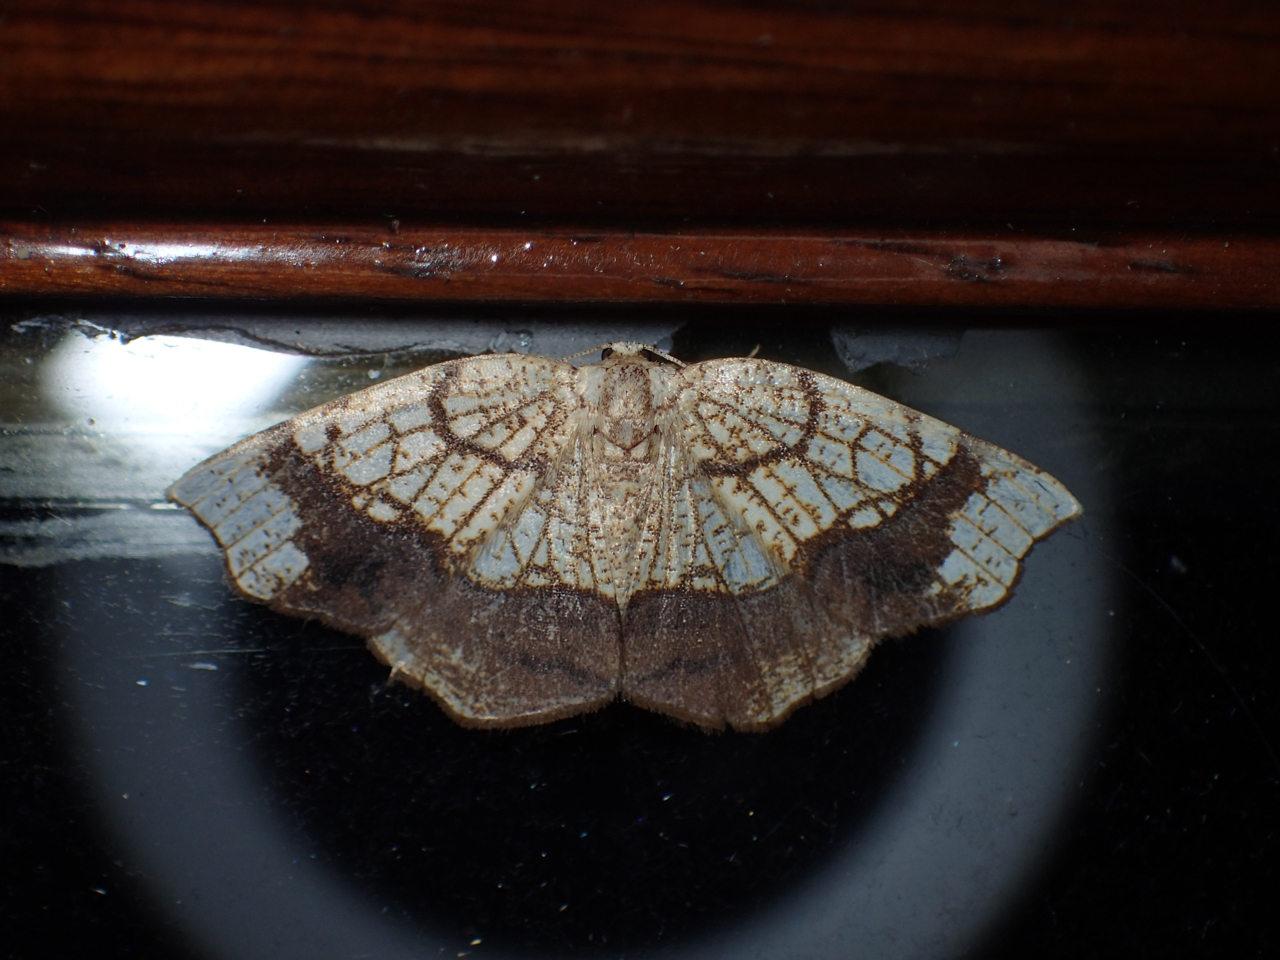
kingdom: Animalia
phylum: Arthropoda
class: Insecta
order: Lepidoptera
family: Geometridae
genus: Nematocampa
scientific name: Nematocampa resistaria
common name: Horned spanworm moth
